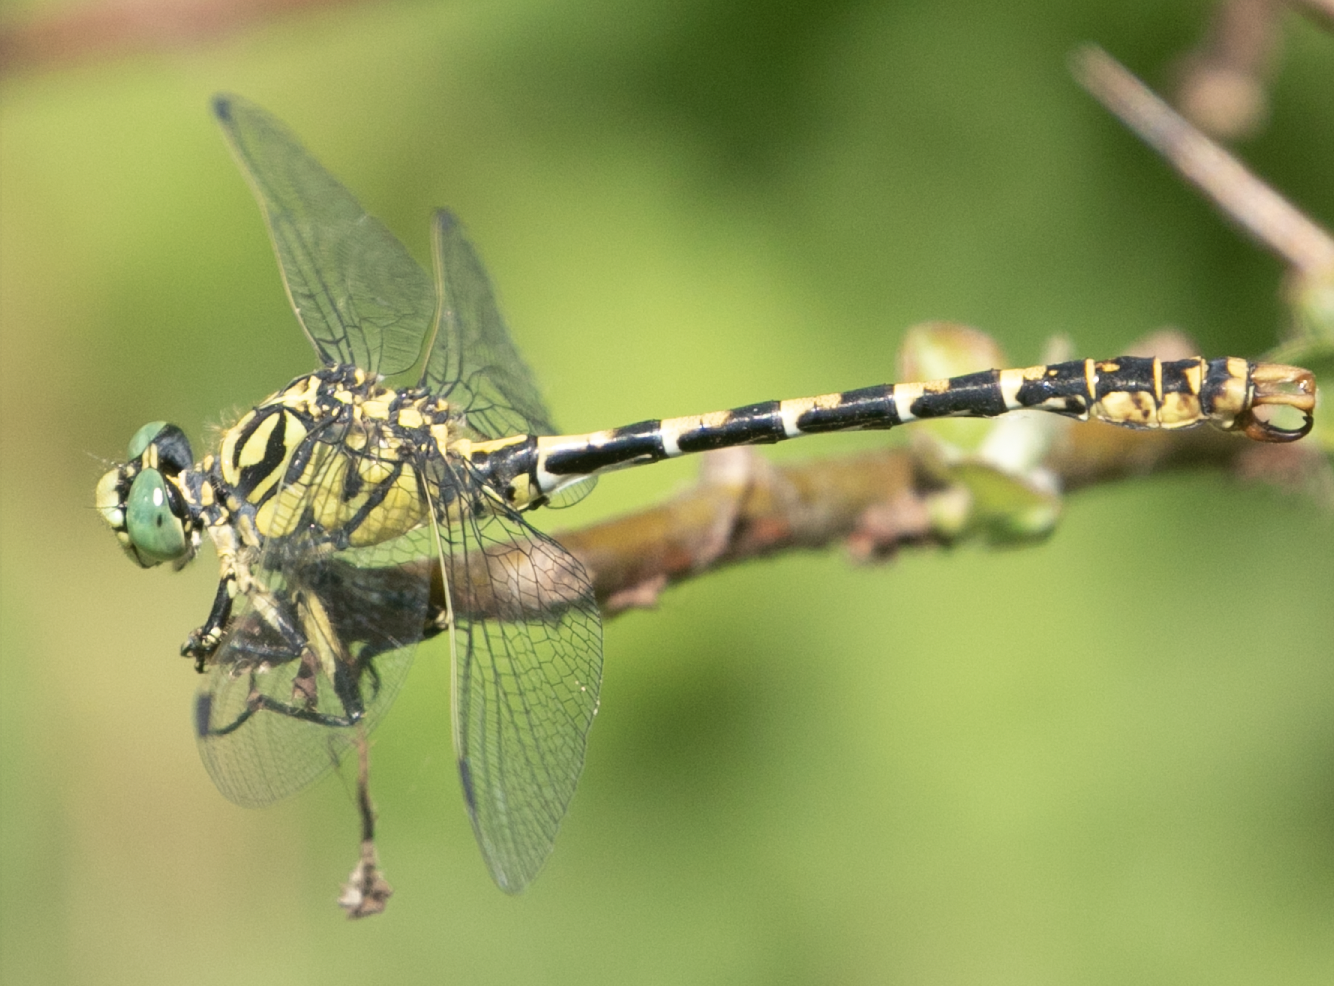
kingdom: Animalia
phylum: Arthropoda
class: Insecta
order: Odonata
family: Gomphidae
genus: Onychogomphus
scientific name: Onychogomphus forcipatus
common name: Small pincertail
